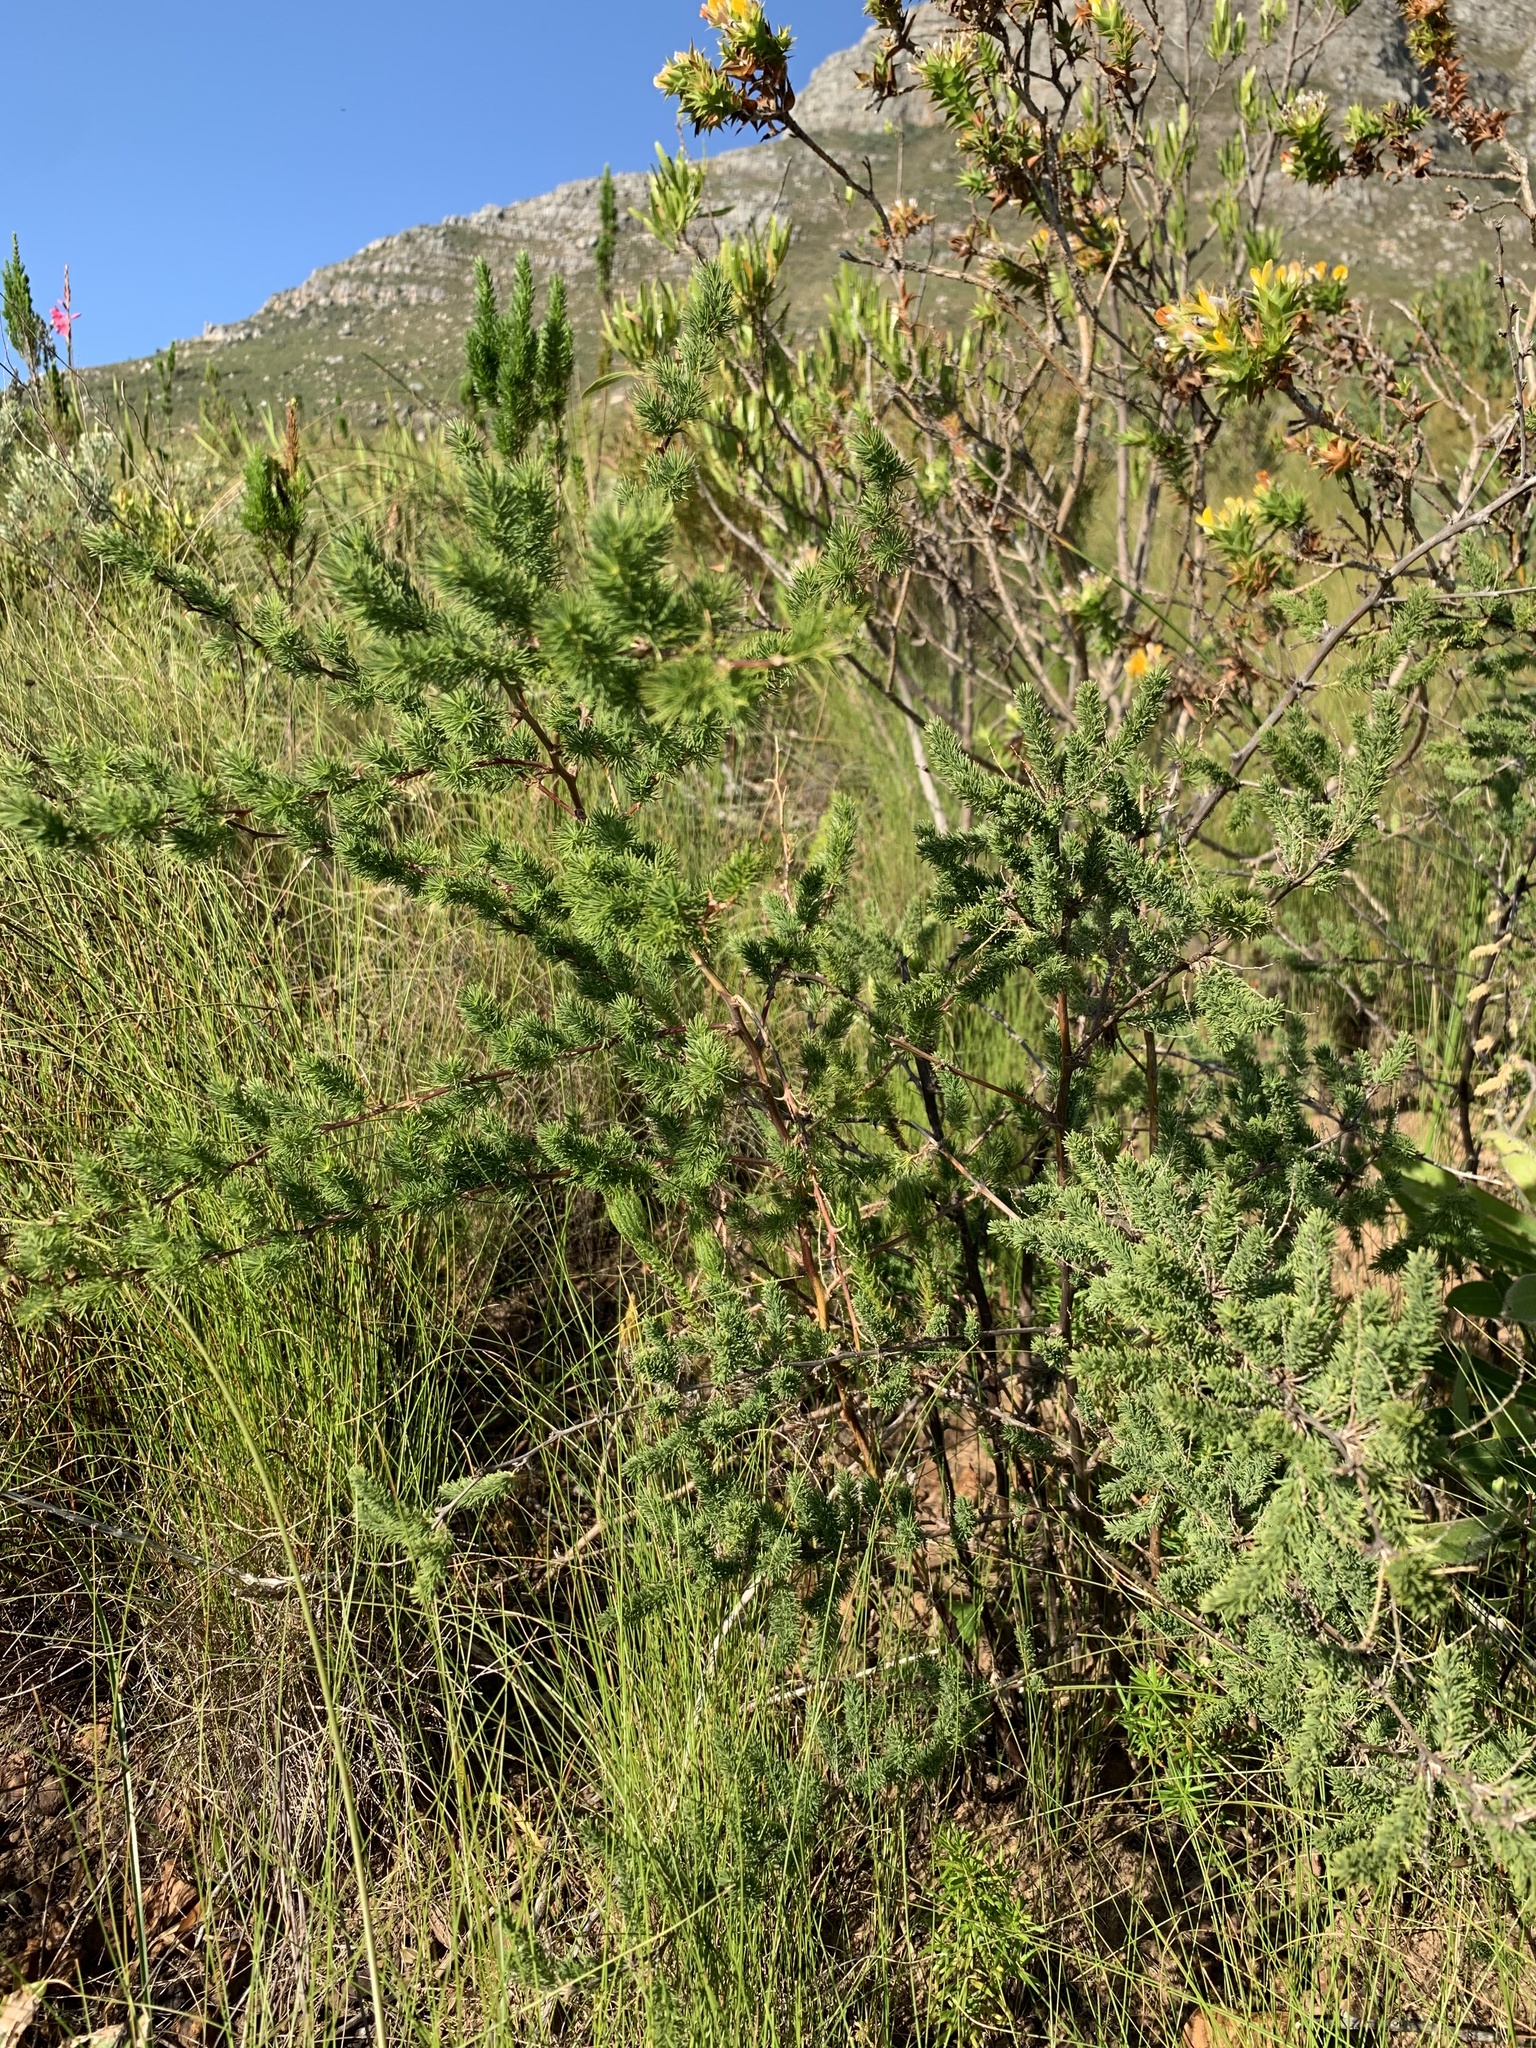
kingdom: Plantae
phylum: Tracheophyta
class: Liliopsida
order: Asparagales
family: Asparagaceae
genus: Asparagus
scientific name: Asparagus rubicundus
